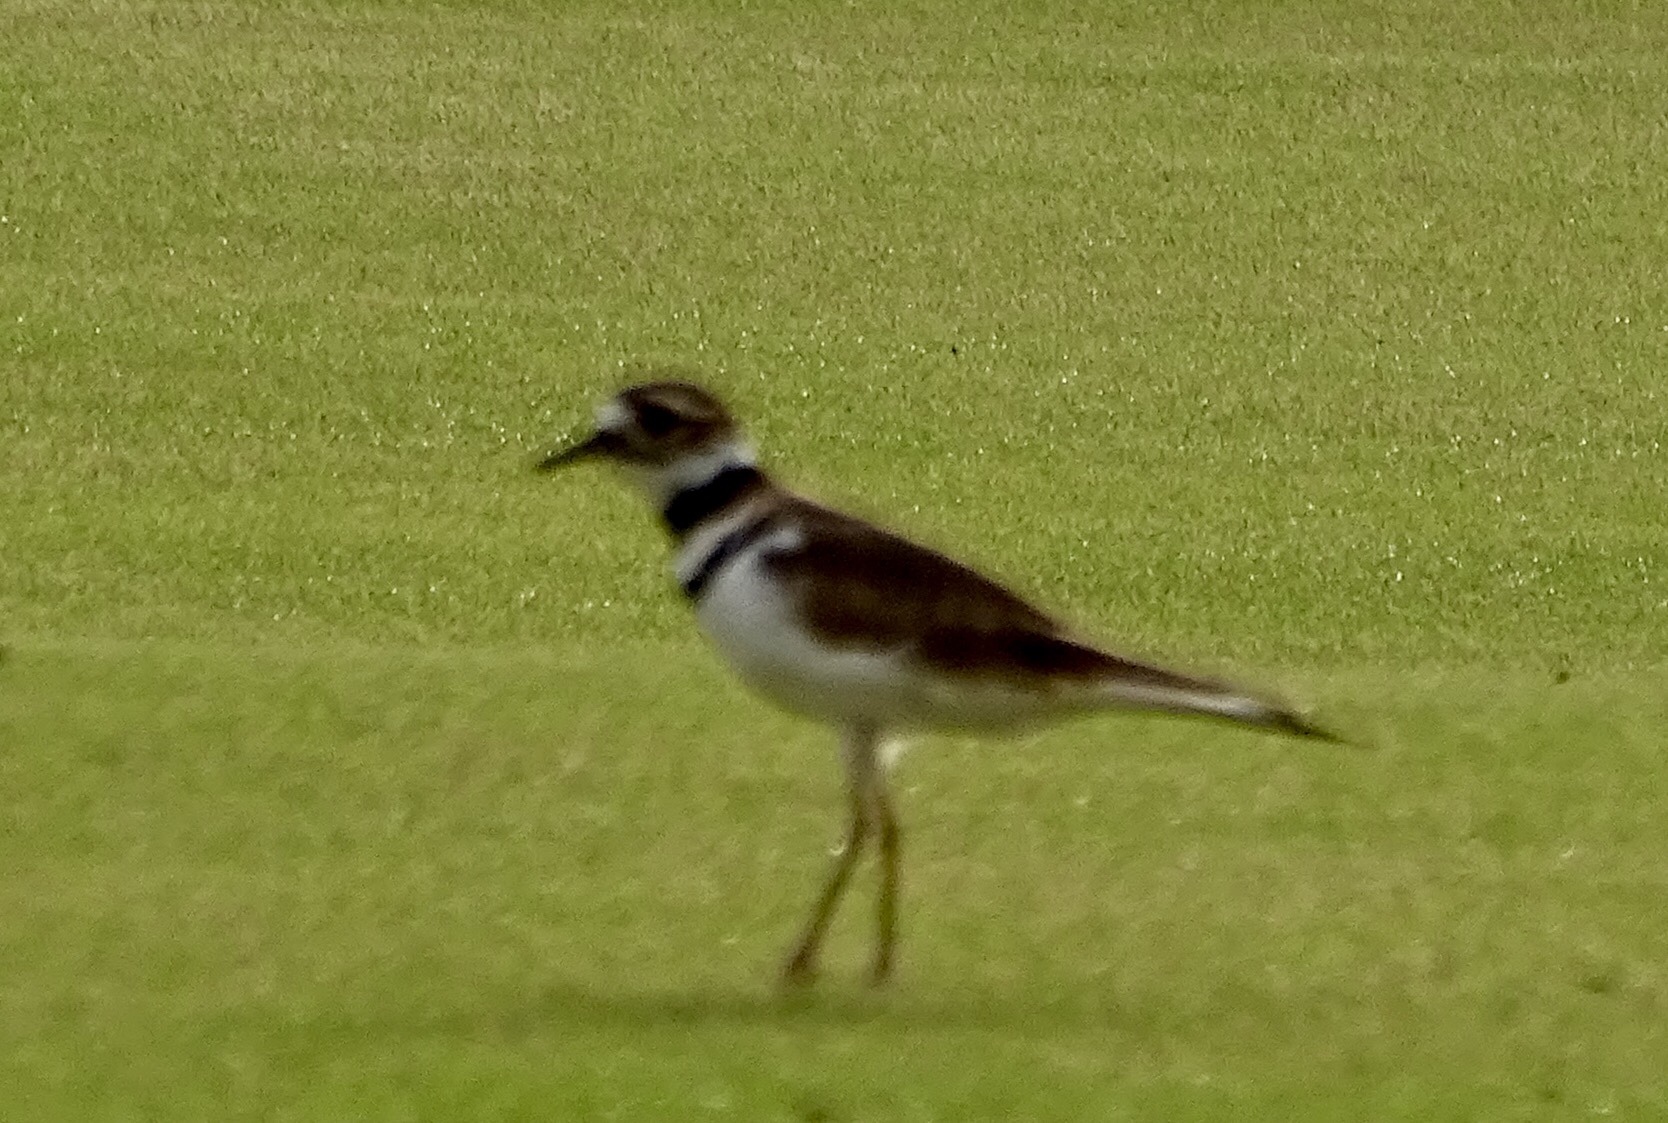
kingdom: Animalia
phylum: Chordata
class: Aves
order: Charadriiformes
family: Charadriidae
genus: Charadrius
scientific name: Charadrius vociferus
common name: Killdeer
